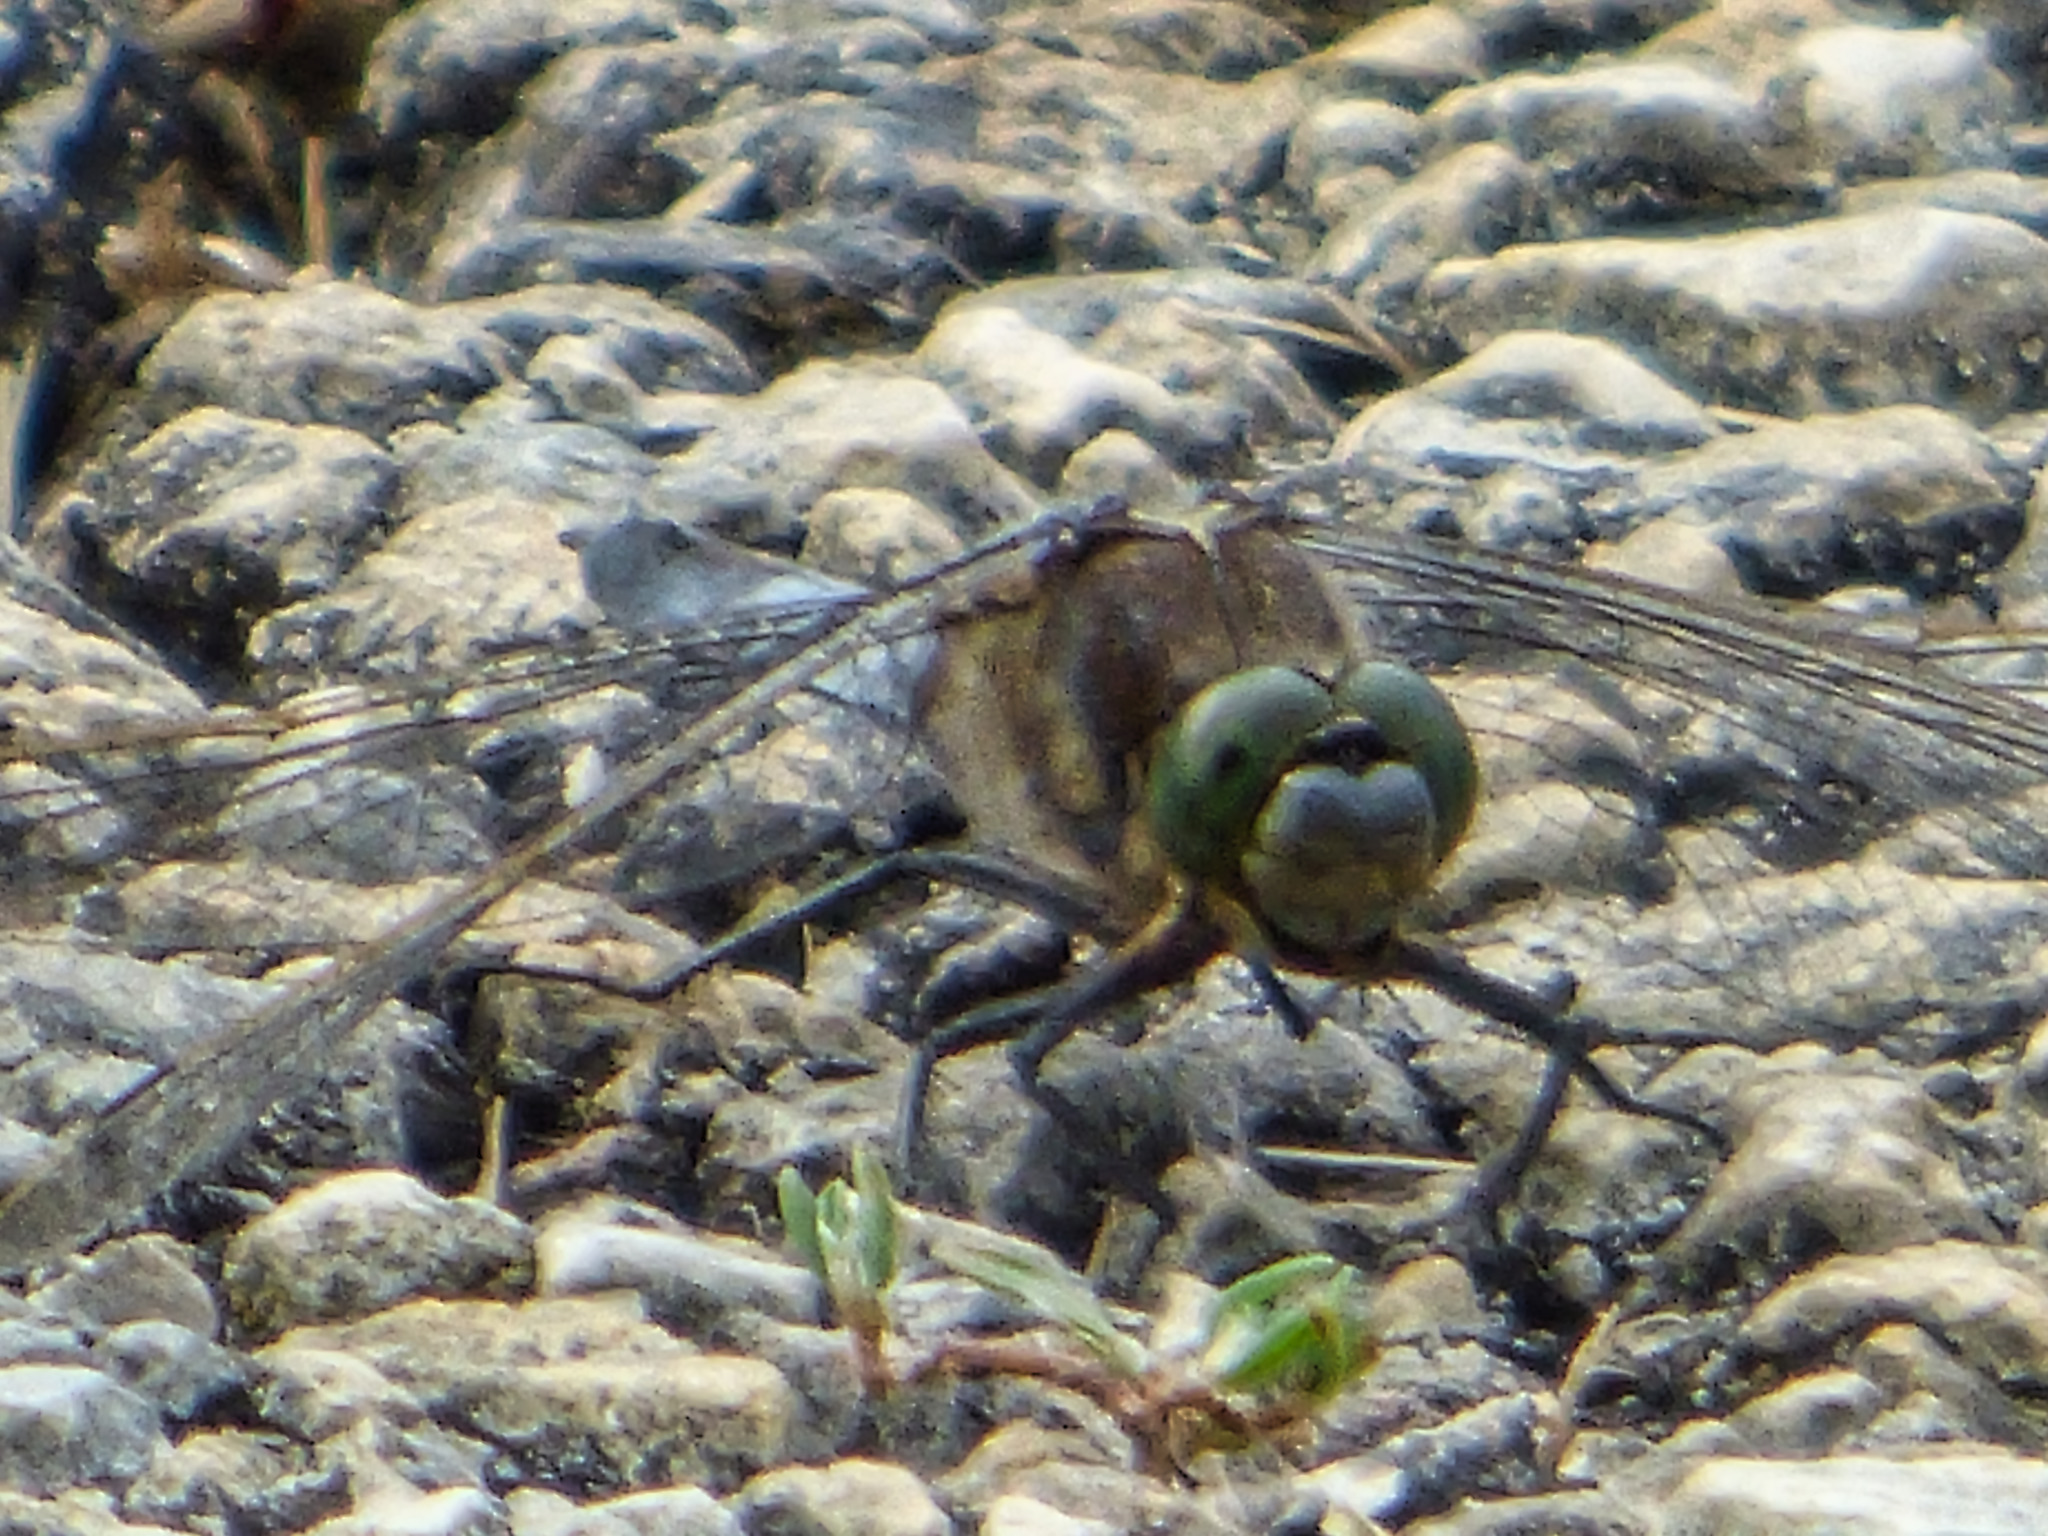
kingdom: Animalia
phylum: Arthropoda
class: Insecta
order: Odonata
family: Libellulidae
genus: Orthetrum
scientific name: Orthetrum cancellatum
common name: Black-tailed skimmer
